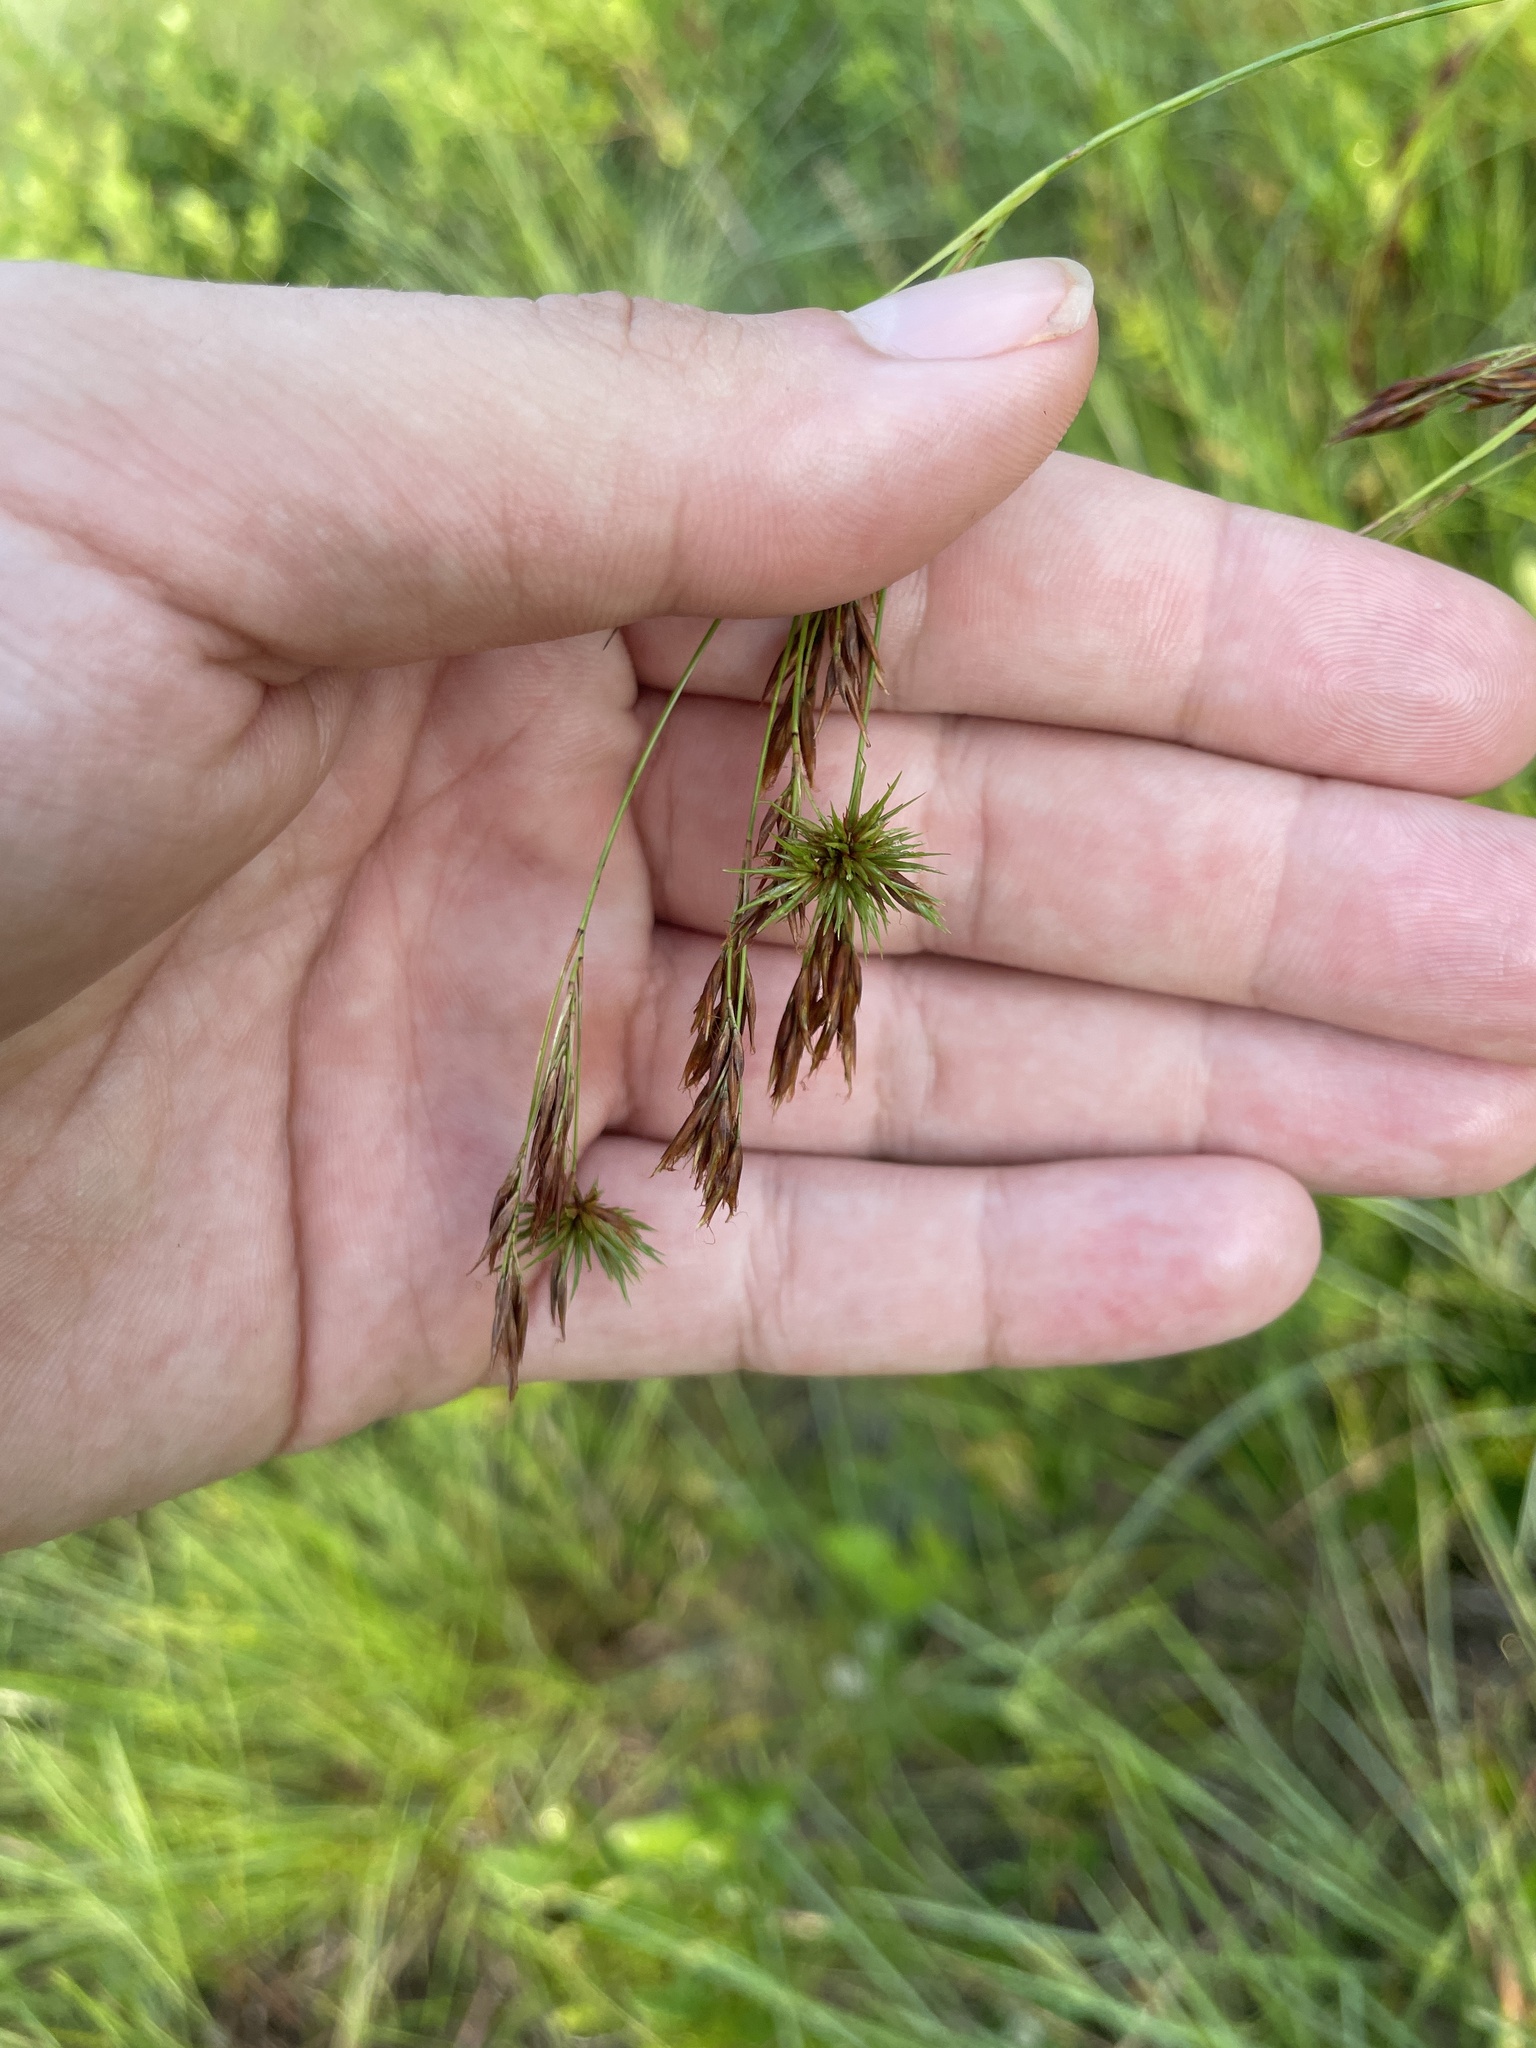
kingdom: Plantae
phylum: Tracheophyta
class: Liliopsida
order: Poales
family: Cyperaceae
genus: Rhynchospora
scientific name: Rhynchospora inexpansa
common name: Nodding beaksedge
